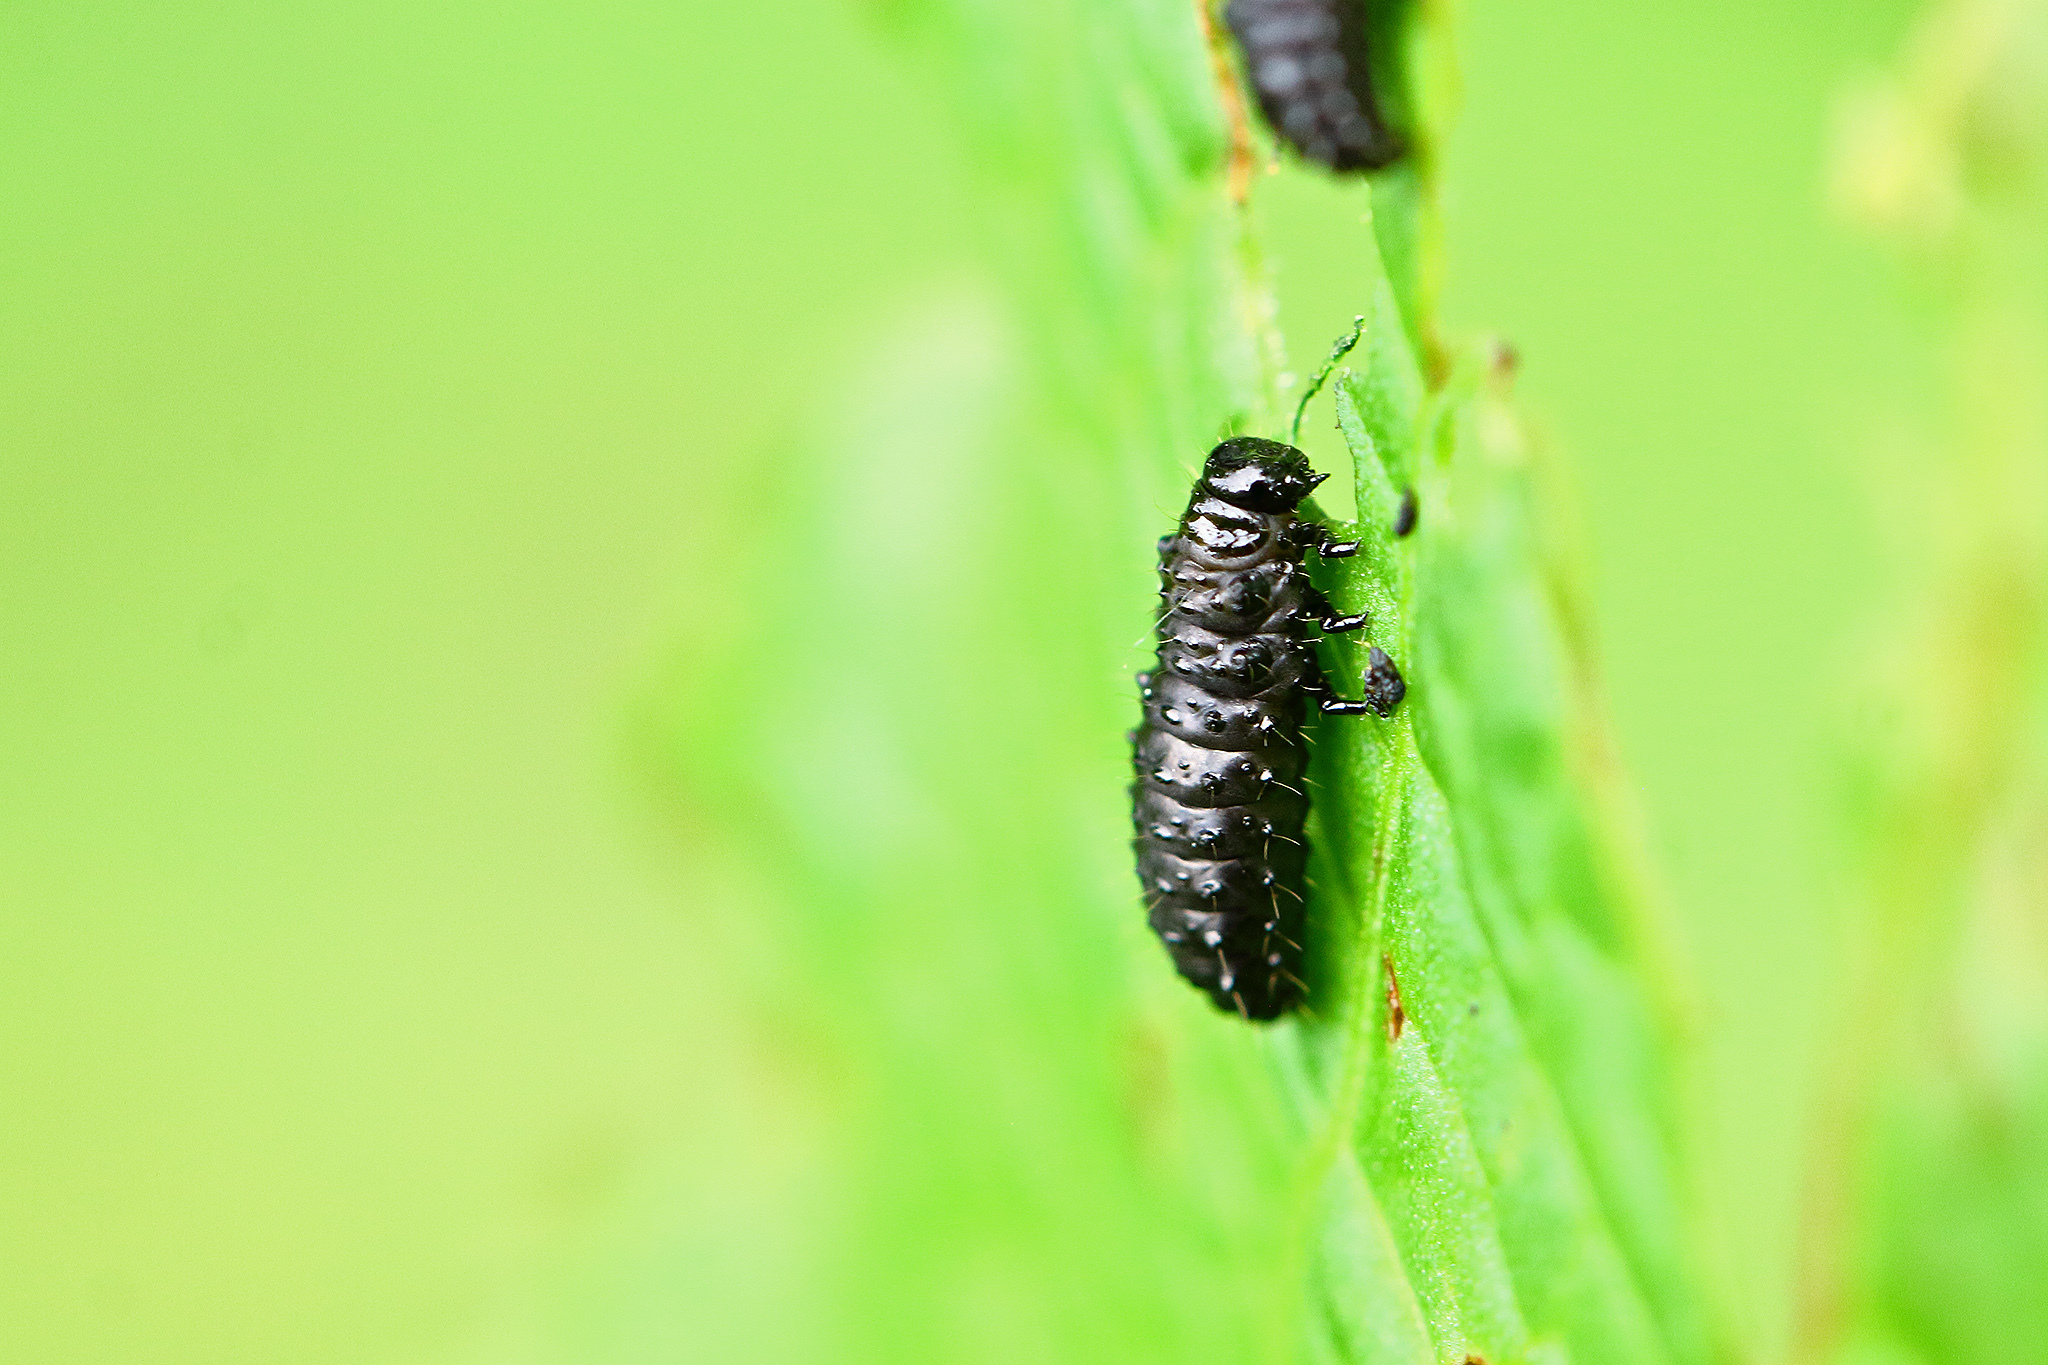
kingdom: Animalia
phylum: Arthropoda
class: Insecta
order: Coleoptera
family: Chrysomelidae
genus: Gastrophysa
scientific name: Gastrophysa viridula
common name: Green dock beetle
